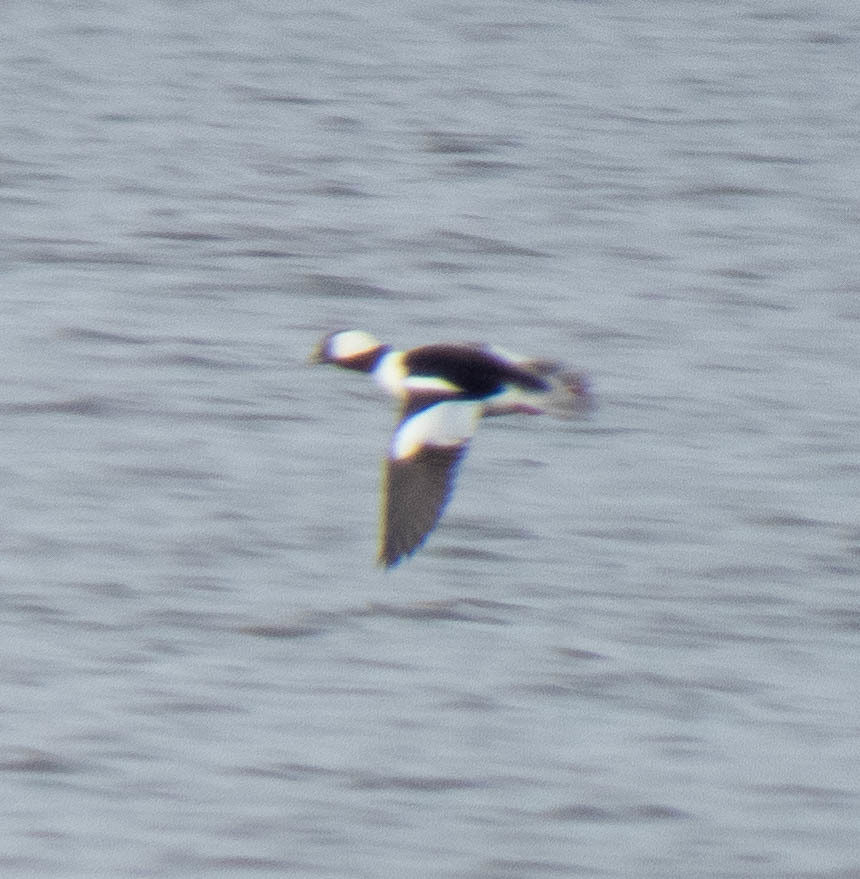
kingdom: Animalia
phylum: Chordata
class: Aves
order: Anseriformes
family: Anatidae
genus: Bucephala
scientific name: Bucephala albeola
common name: Bufflehead
